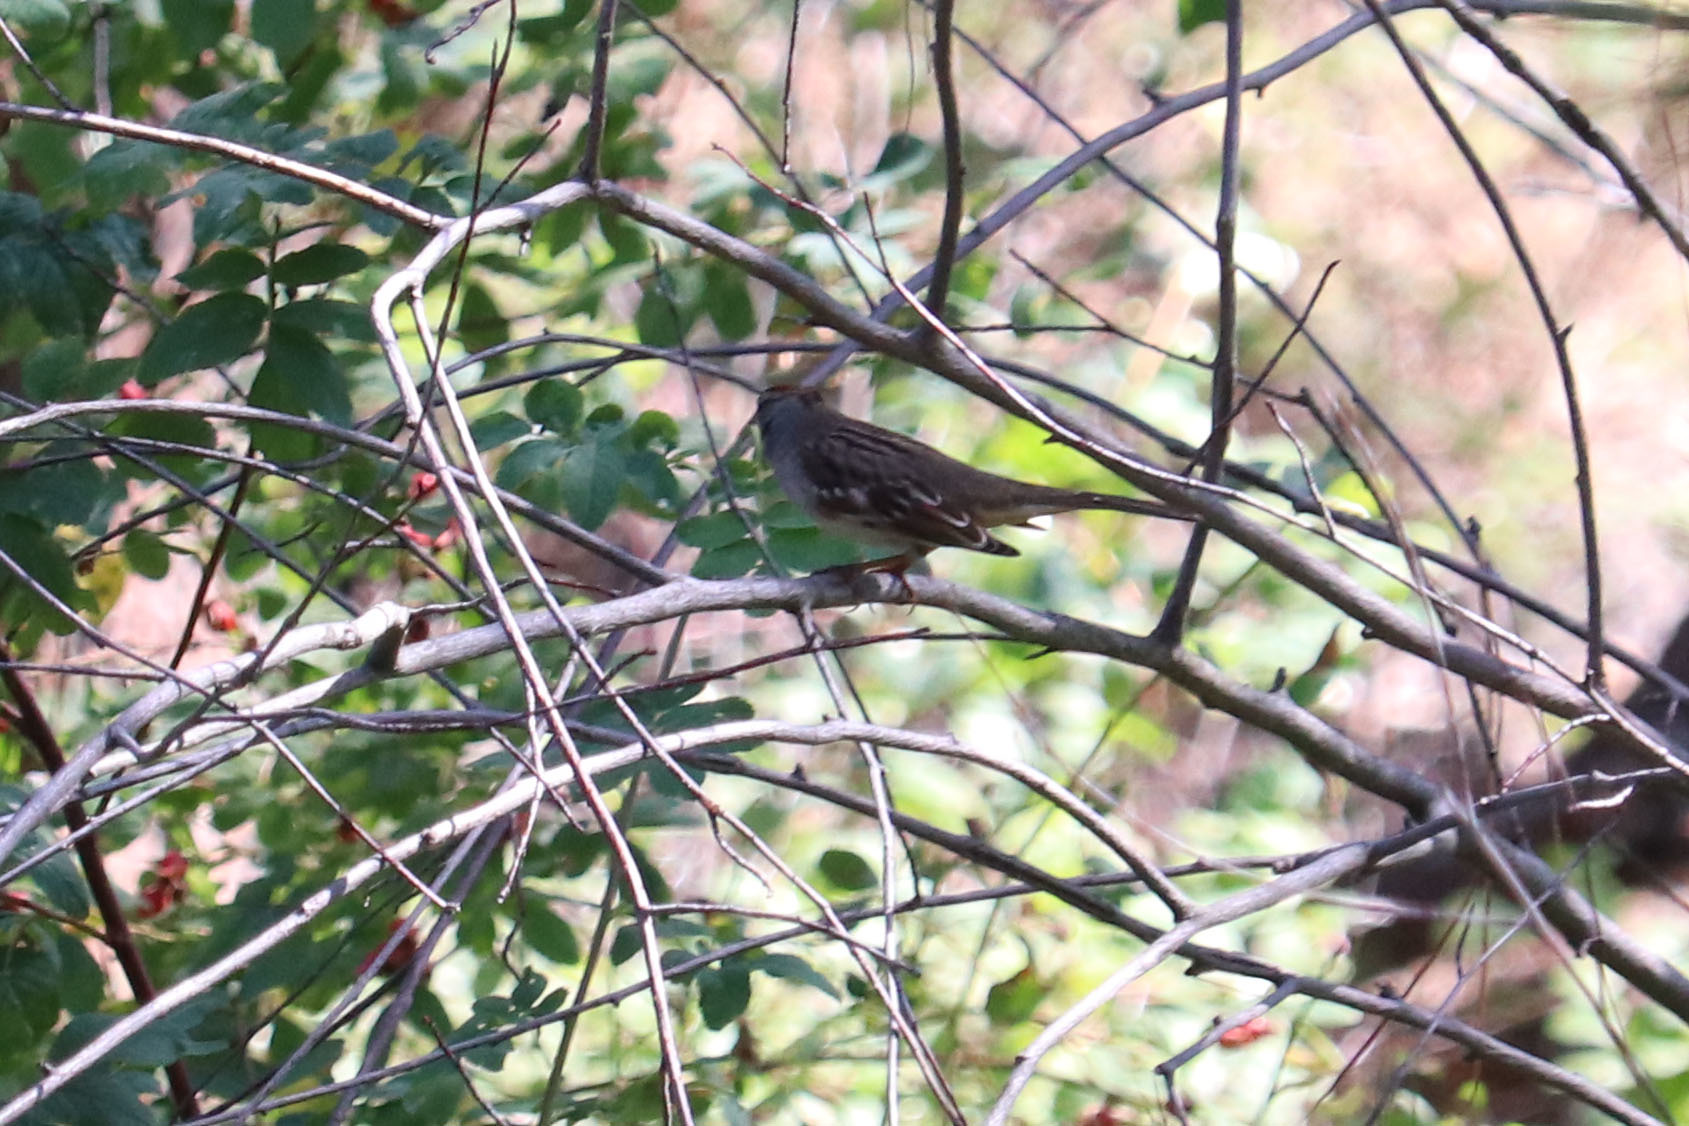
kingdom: Animalia
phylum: Chordata
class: Aves
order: Passeriformes
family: Passerellidae
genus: Zonotrichia
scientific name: Zonotrichia leucophrys
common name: White-crowned sparrow
